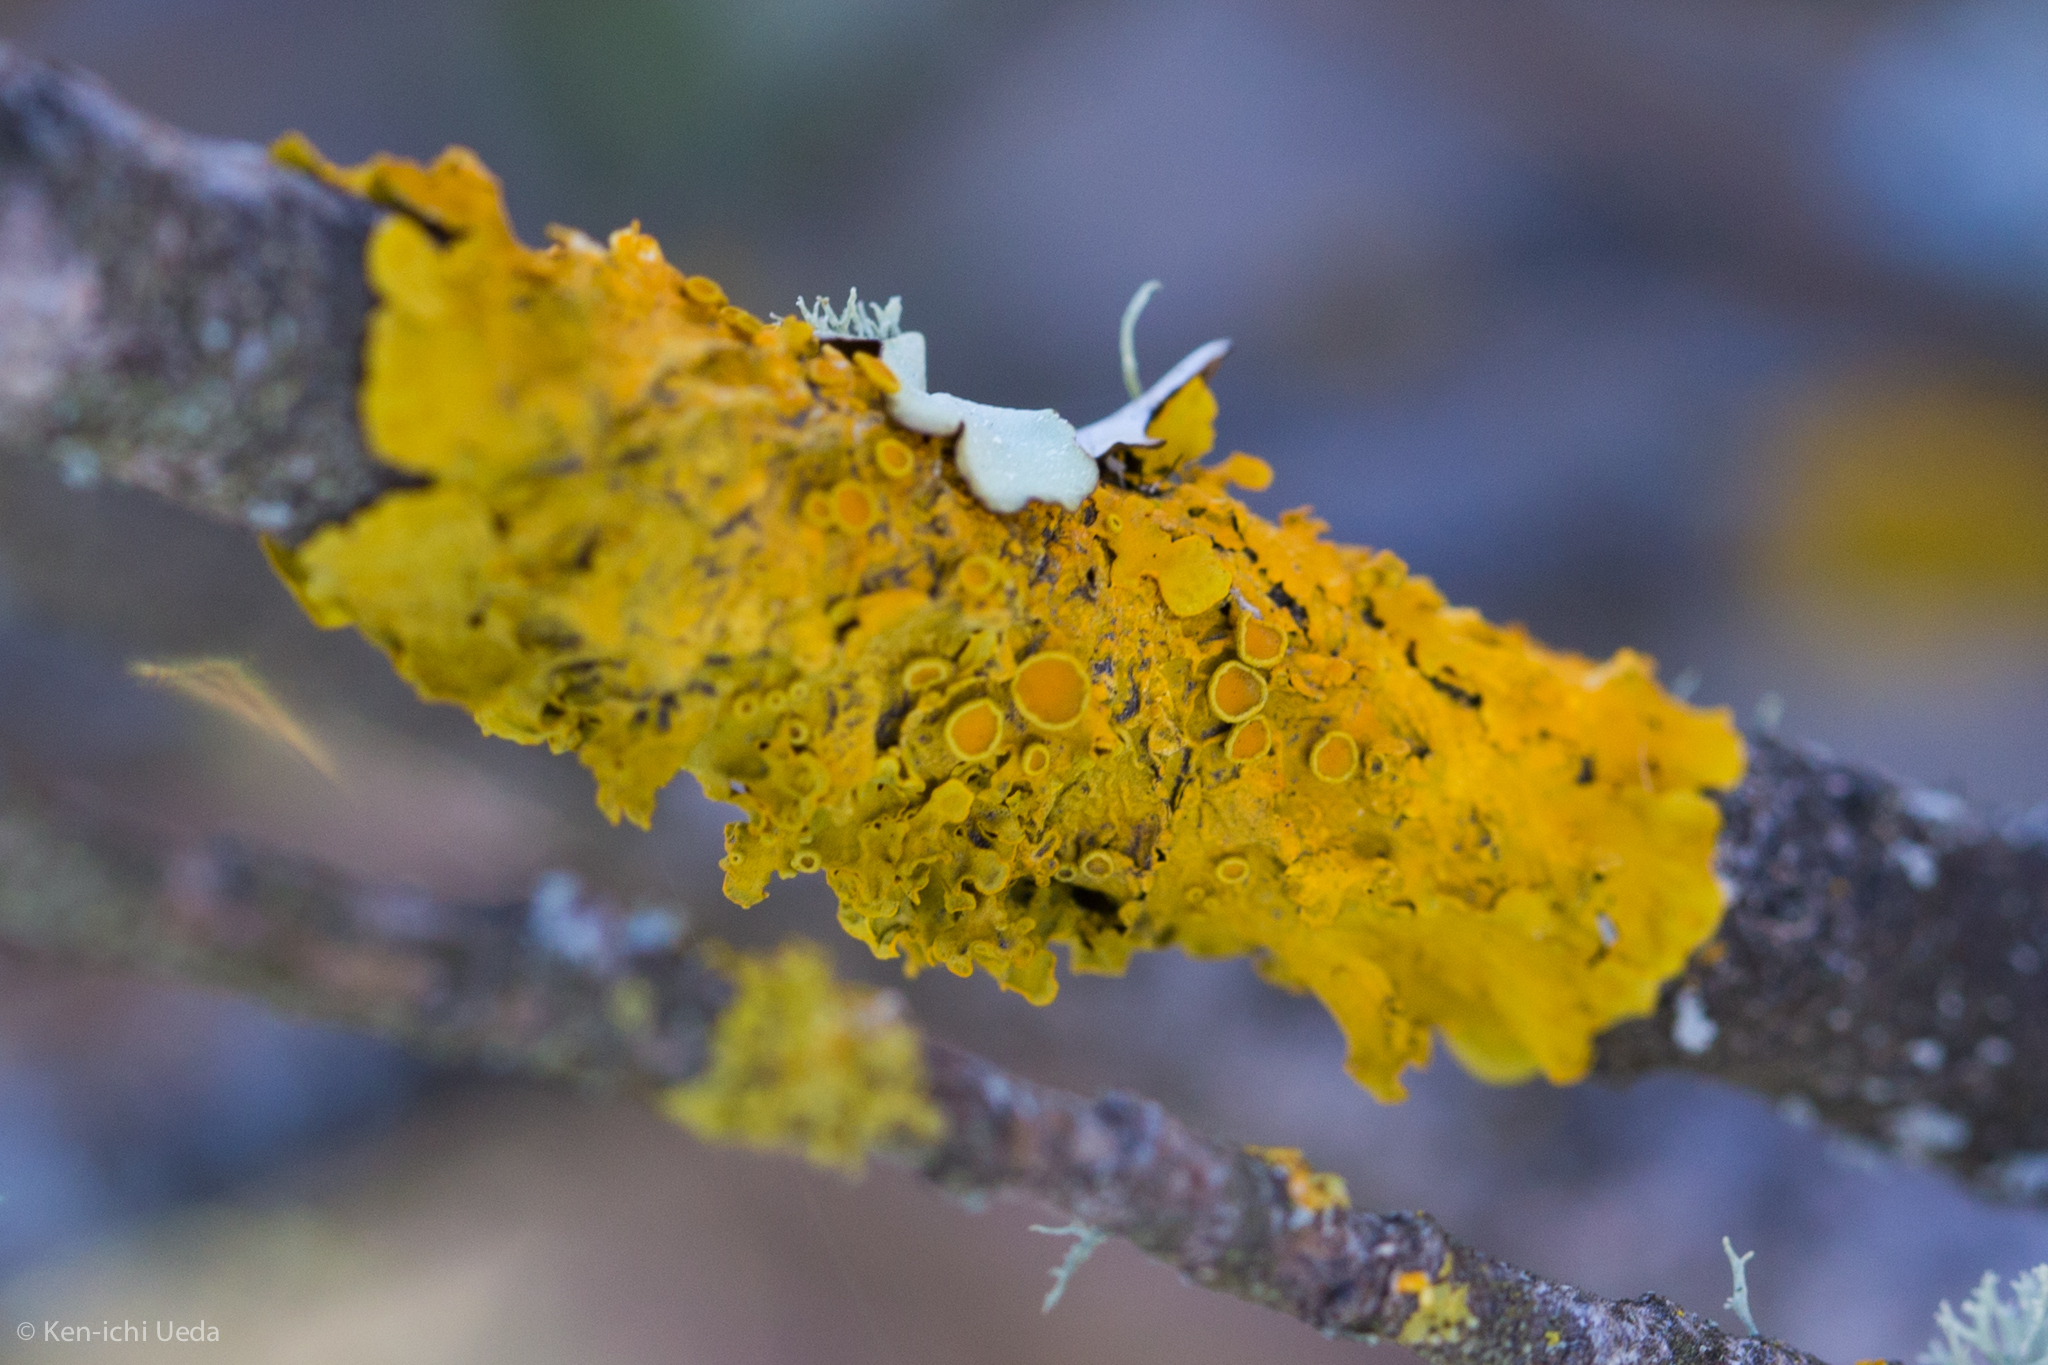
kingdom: Fungi
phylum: Ascomycota
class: Lecanoromycetes
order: Teloschistales
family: Teloschistaceae
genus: Xanthoria
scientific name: Xanthoria parietina
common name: Common orange lichen
